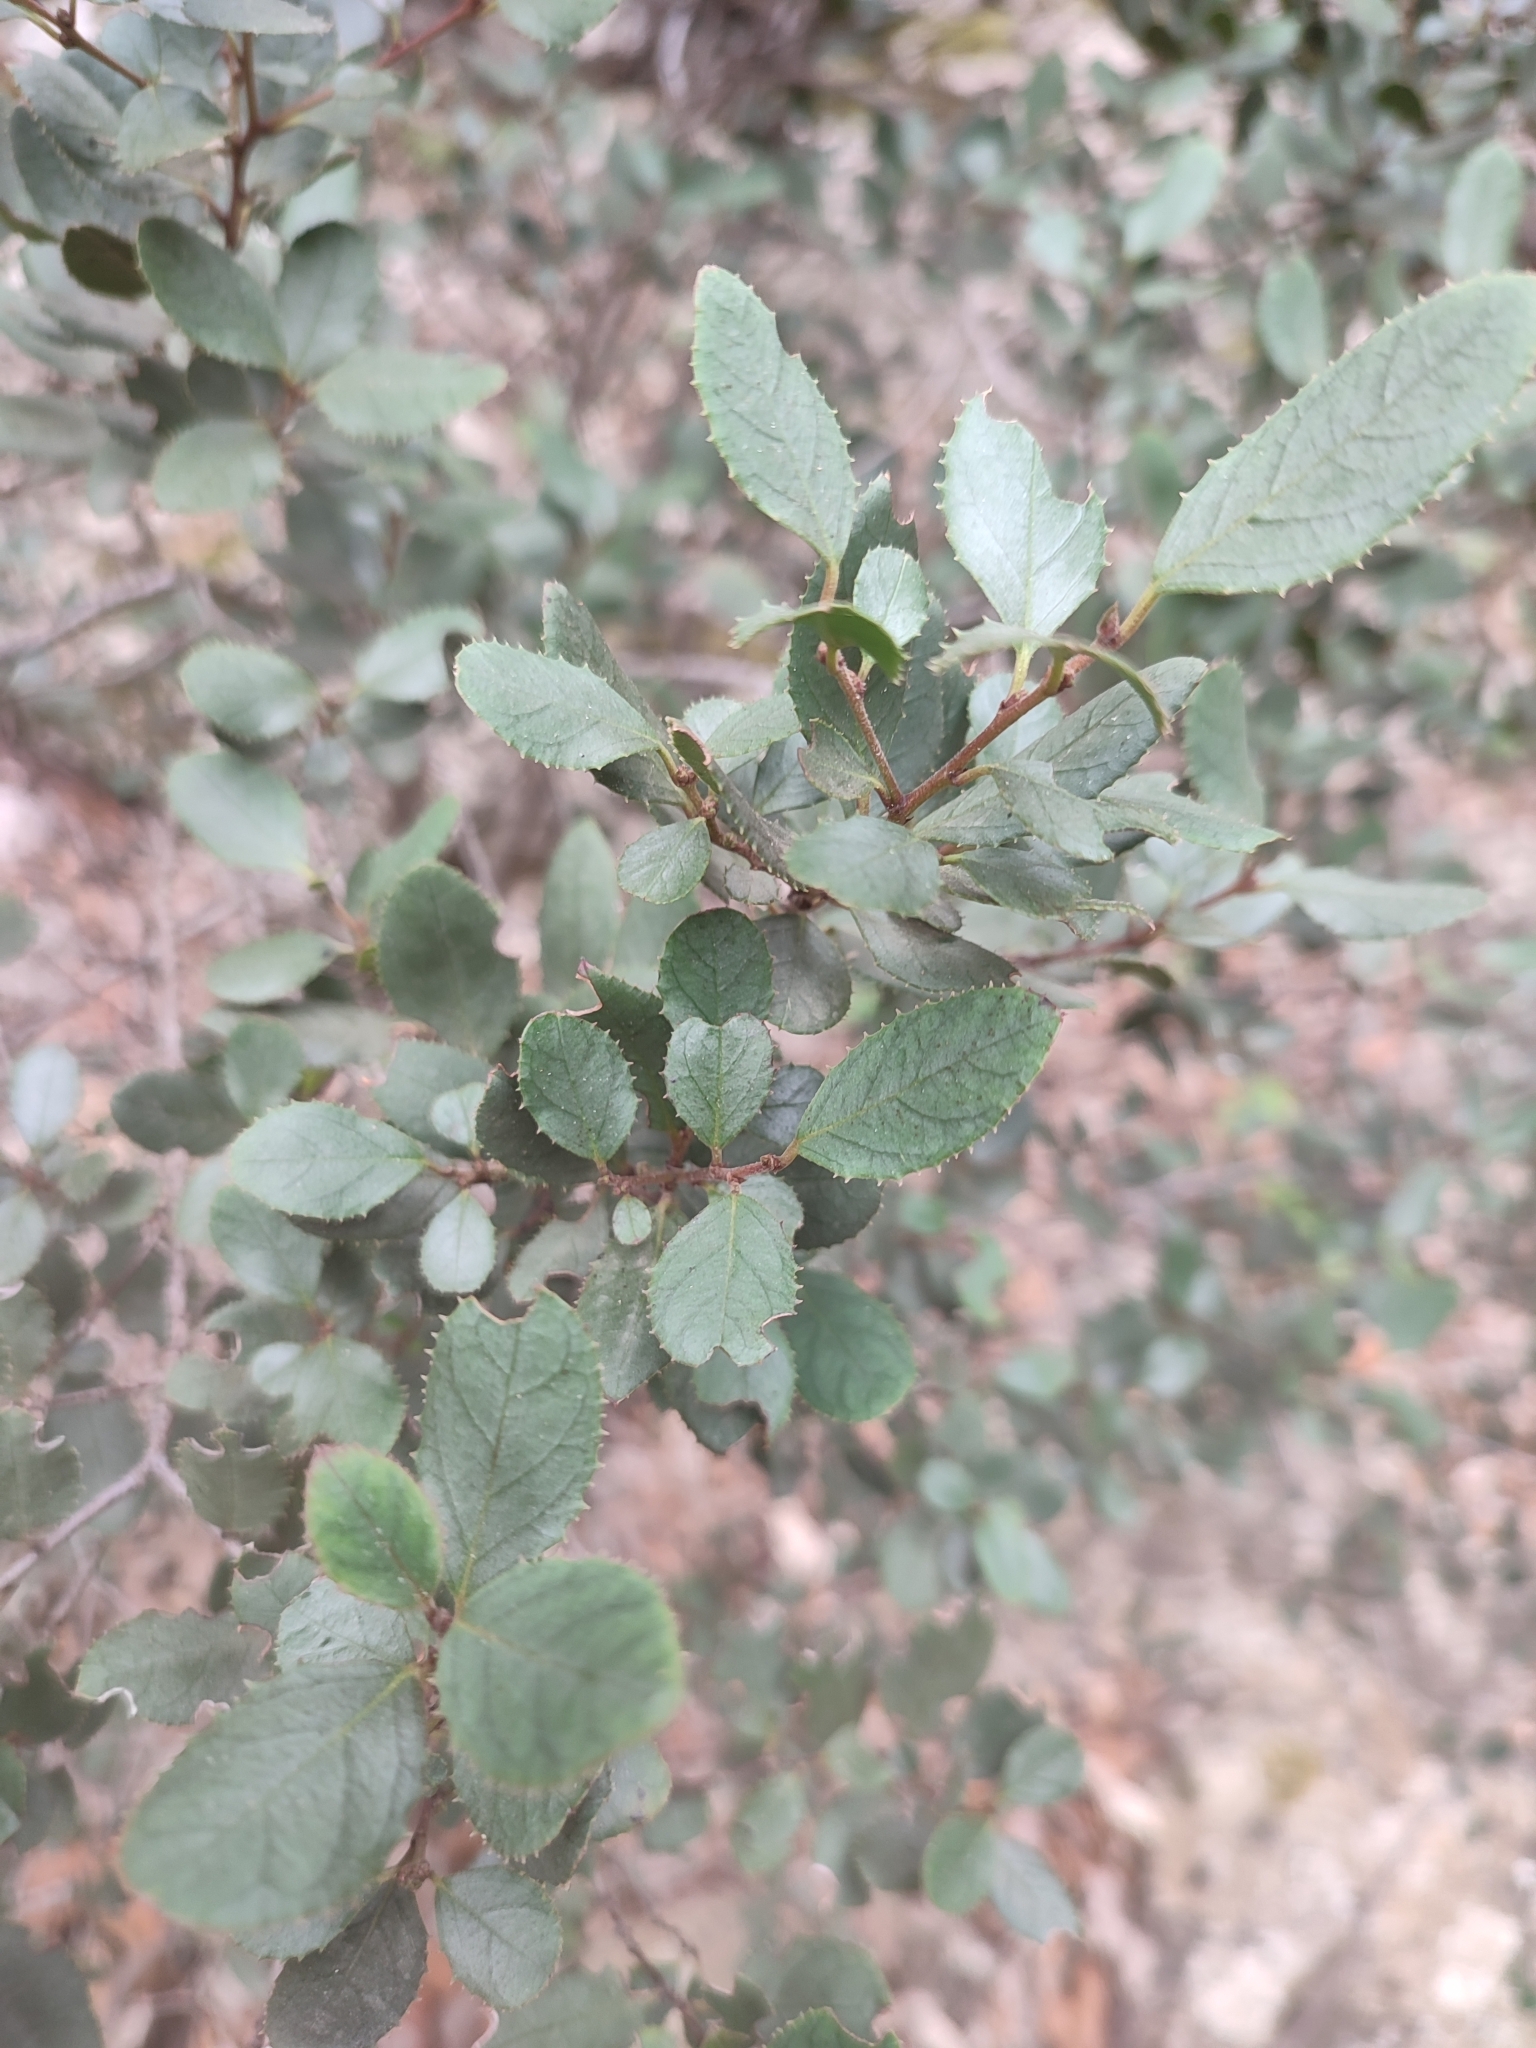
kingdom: Plantae
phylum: Tracheophyta
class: Magnoliopsida
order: Rosales
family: Rhamnaceae
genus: Rhamnus
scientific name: Rhamnus ludovici-salvatoris
